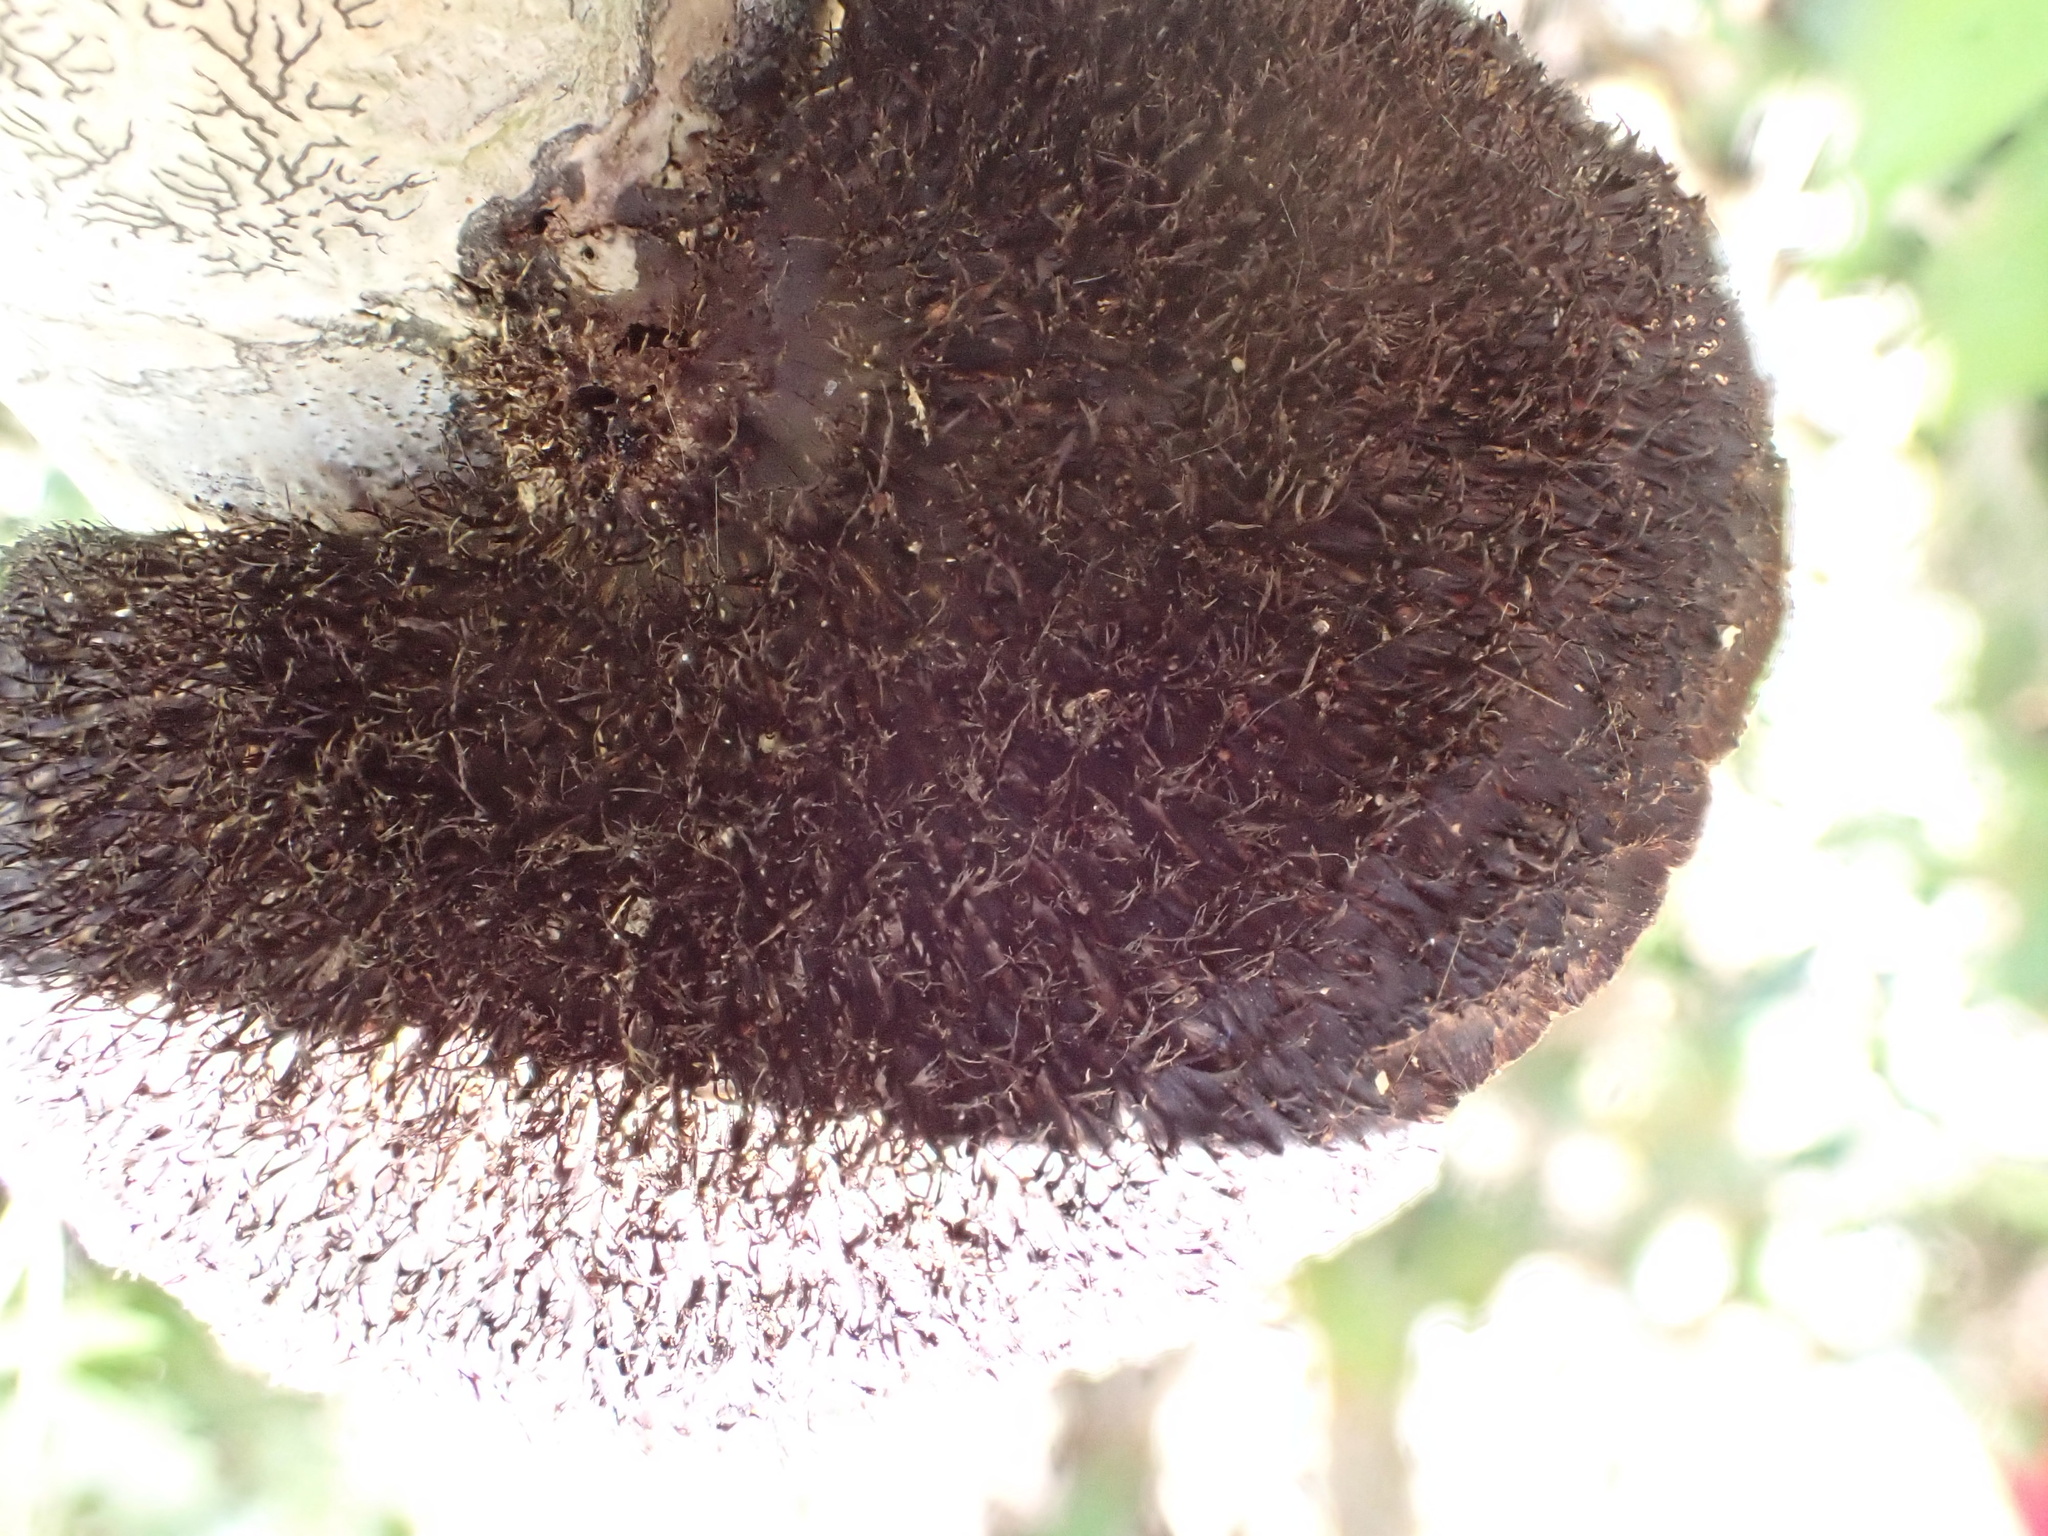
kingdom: Fungi
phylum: Basidiomycota
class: Agaricomycetes
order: Polyporales
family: Cerrenaceae
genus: Cerrena
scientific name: Cerrena hydnoides
